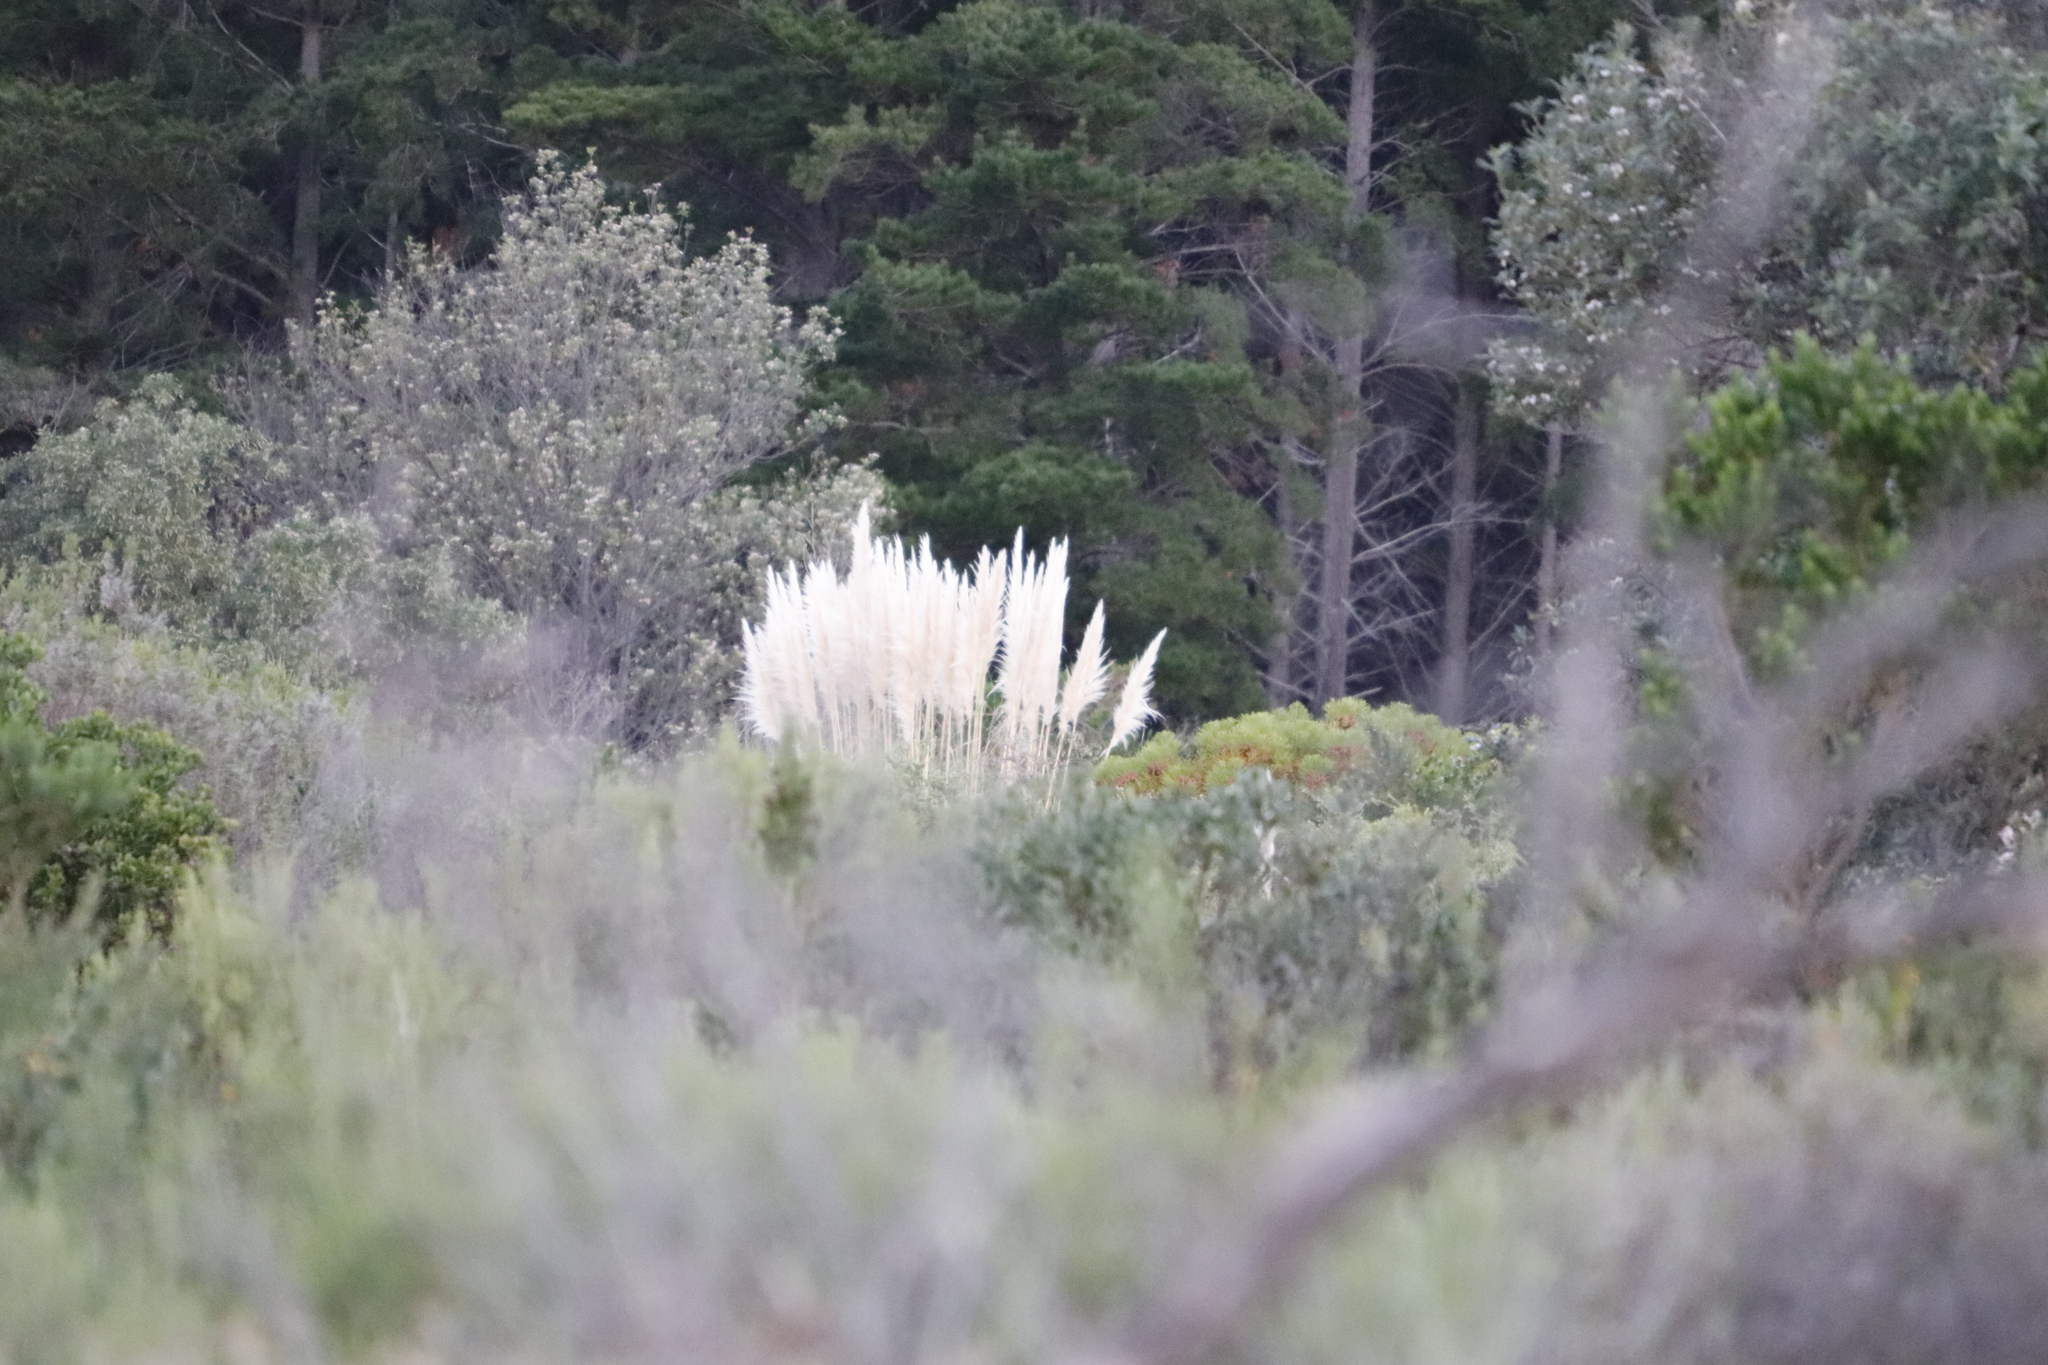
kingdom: Plantae
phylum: Tracheophyta
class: Liliopsida
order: Poales
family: Poaceae
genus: Cortaderia
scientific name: Cortaderia selloana
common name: Uruguayan pampas grass
